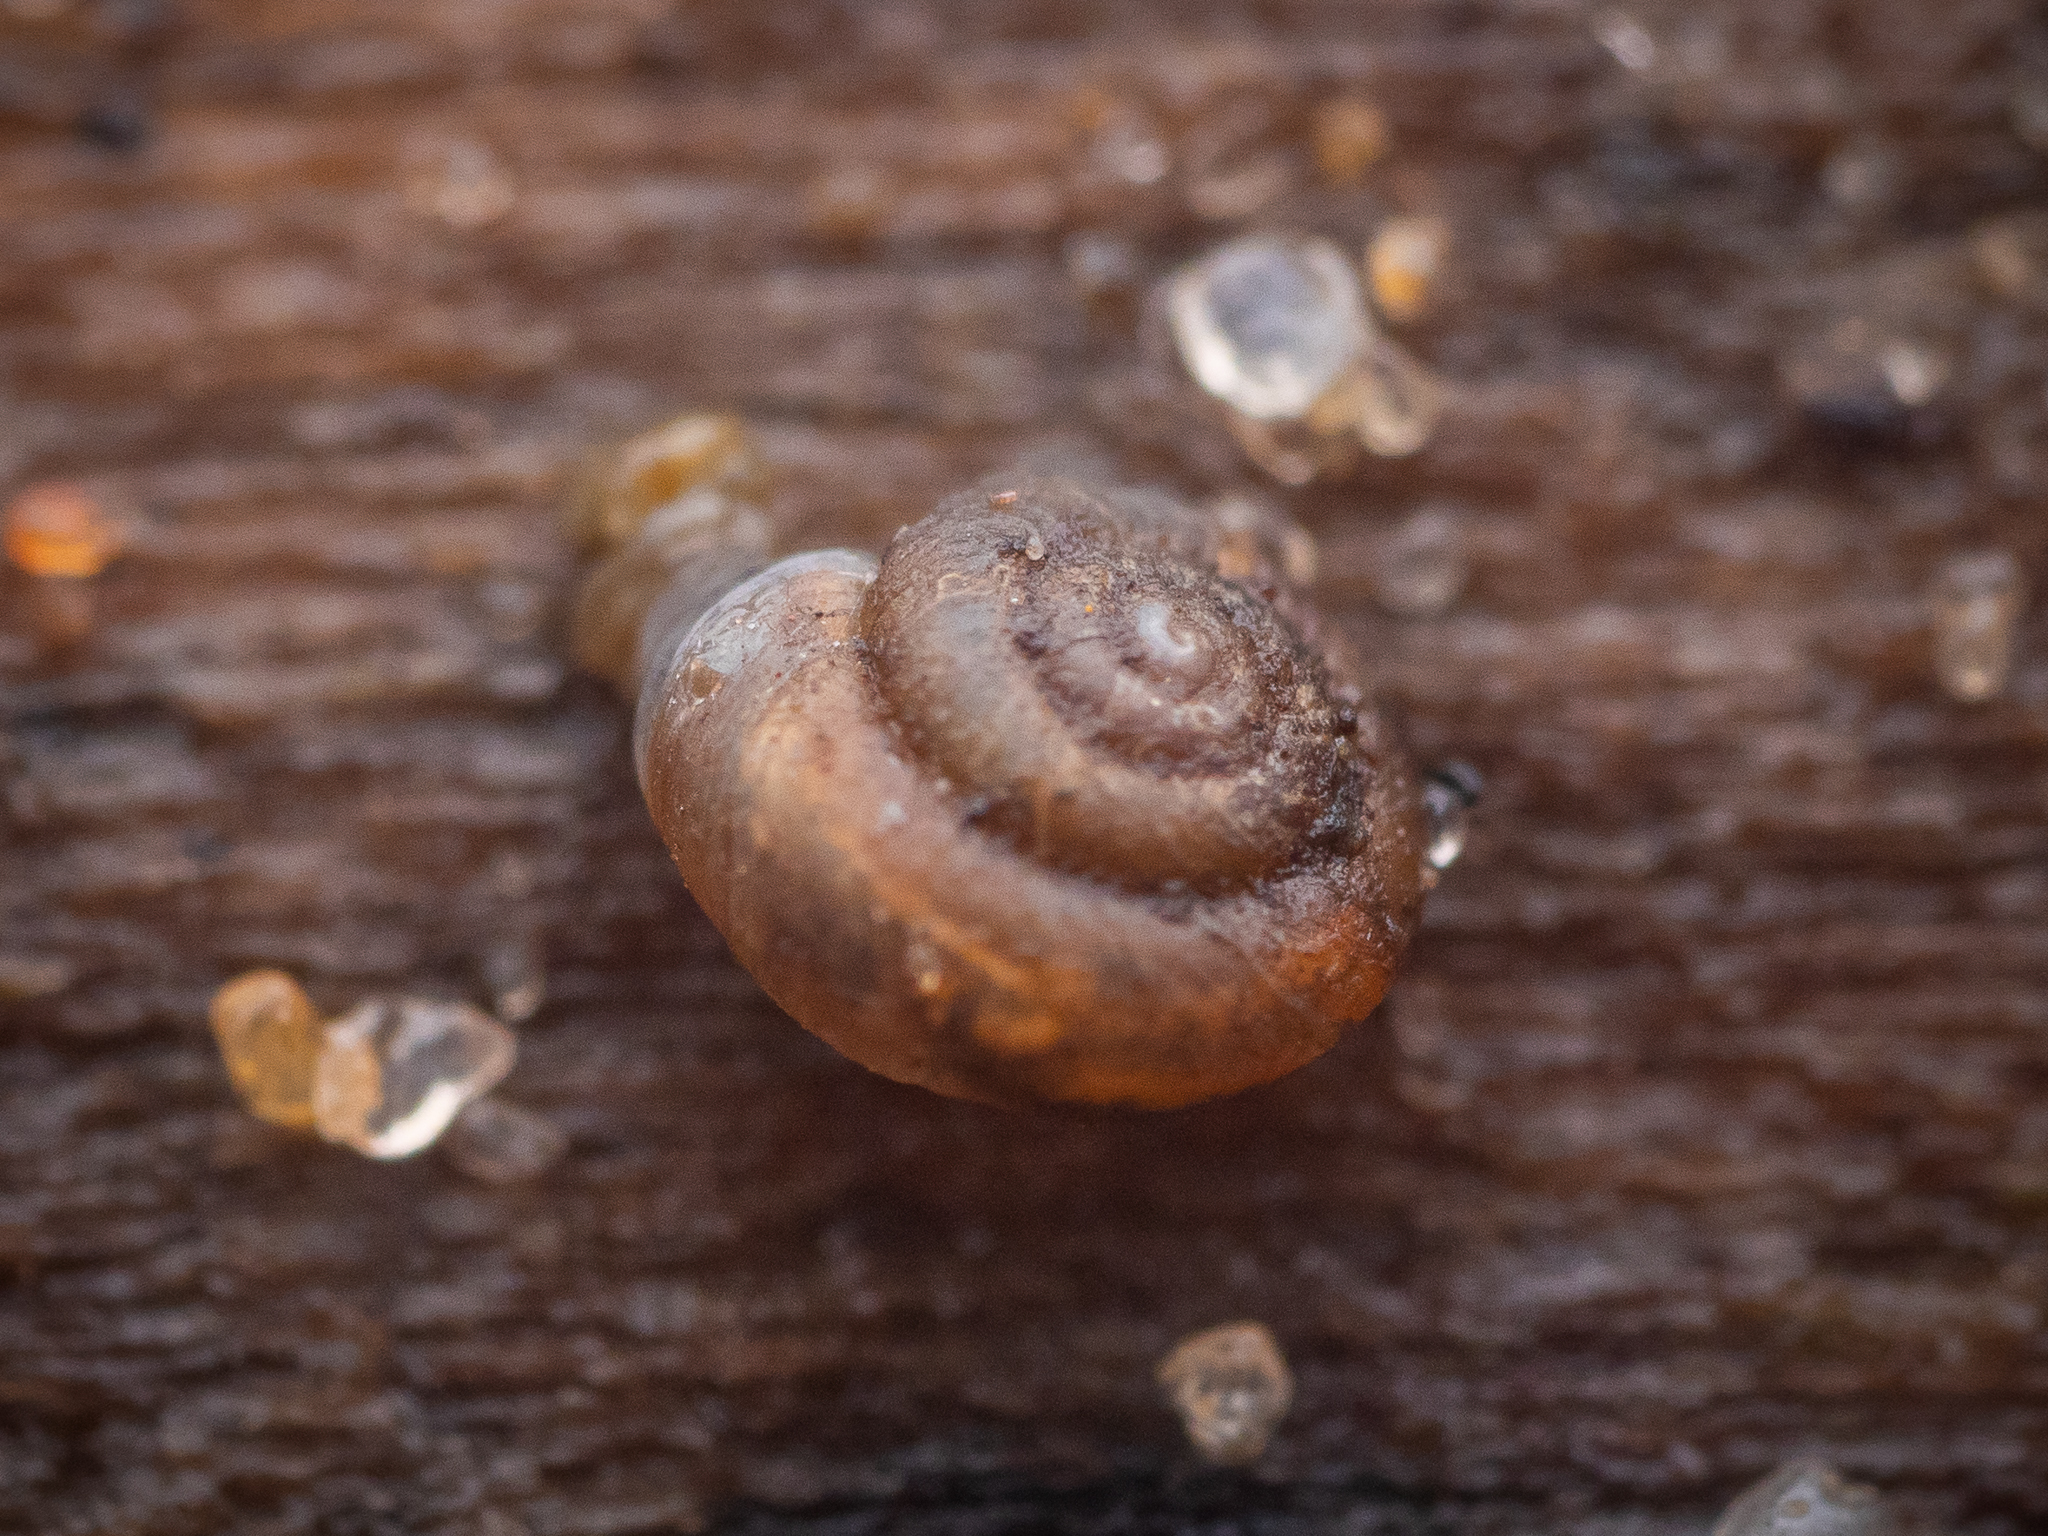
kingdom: Animalia
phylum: Mollusca
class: Gastropoda
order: Stylommatophora
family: Punctidae
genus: Paralaoma
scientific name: Paralaoma servilis
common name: Pinhead spot
